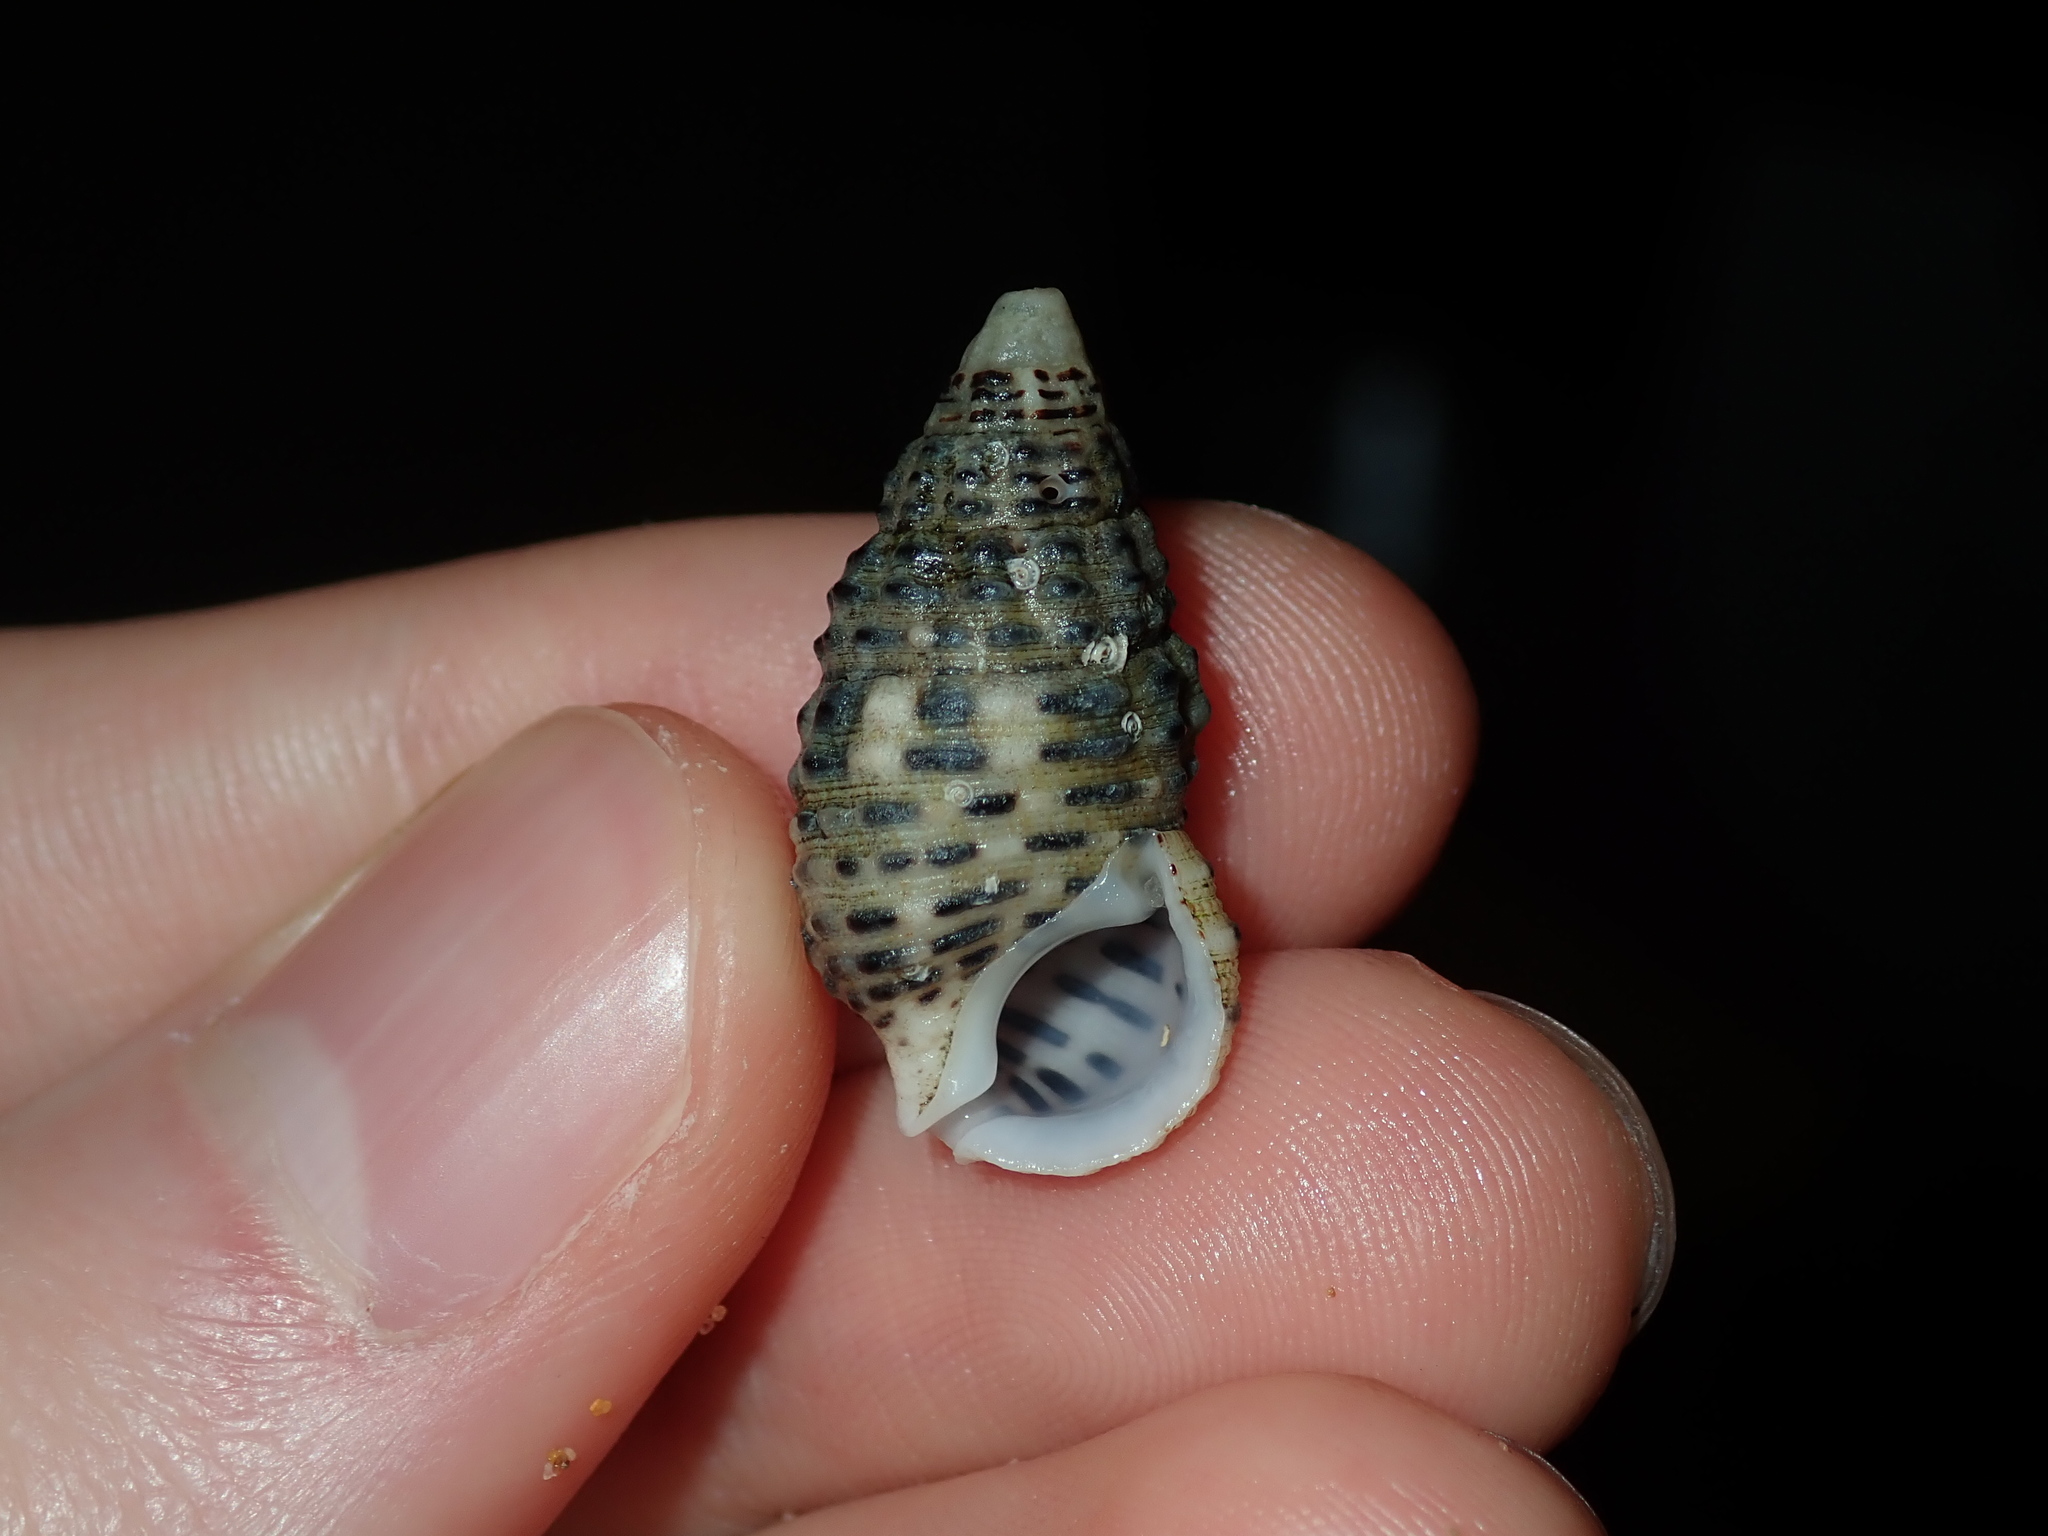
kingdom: Animalia
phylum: Mollusca
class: Gastropoda
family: Cerithiidae
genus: Clypeomorus
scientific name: Clypeomorus petrosa
